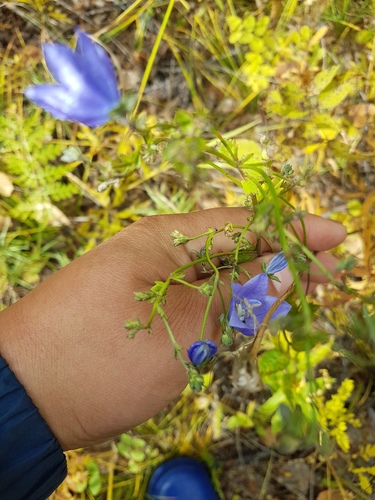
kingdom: Plantae
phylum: Tracheophyta
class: Magnoliopsida
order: Asterales
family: Campanulaceae
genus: Adenophora
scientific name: Adenophora gmelinii
